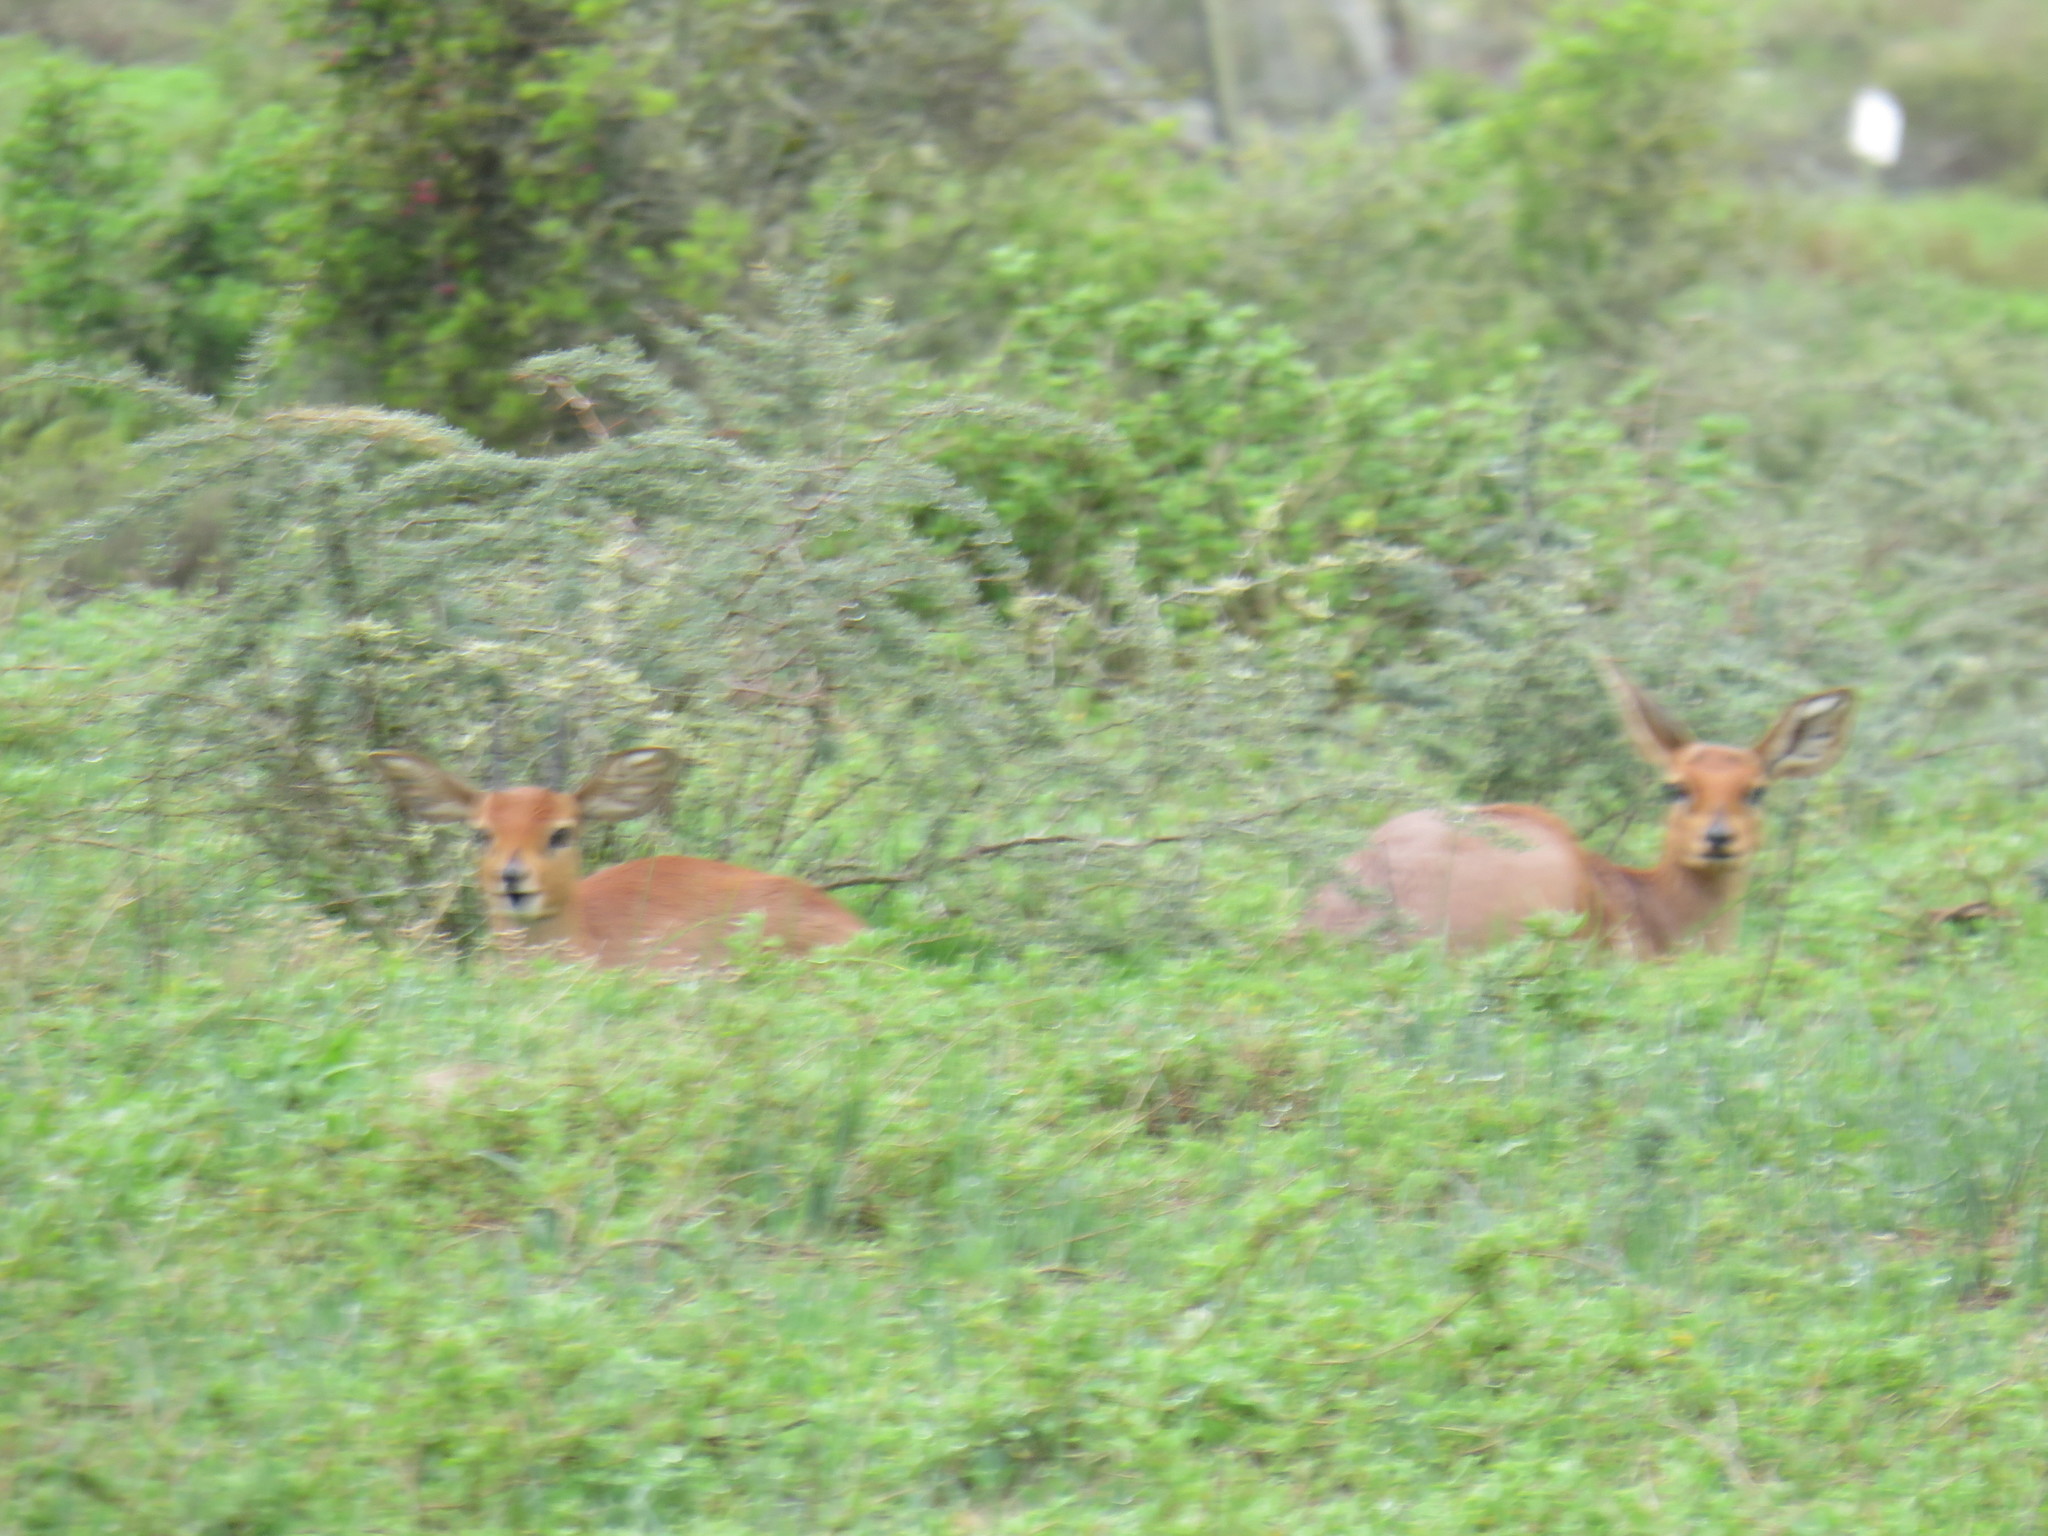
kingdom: Animalia
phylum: Chordata
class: Mammalia
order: Artiodactyla
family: Bovidae
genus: Raphicerus
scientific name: Raphicerus campestris
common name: Steenbok
